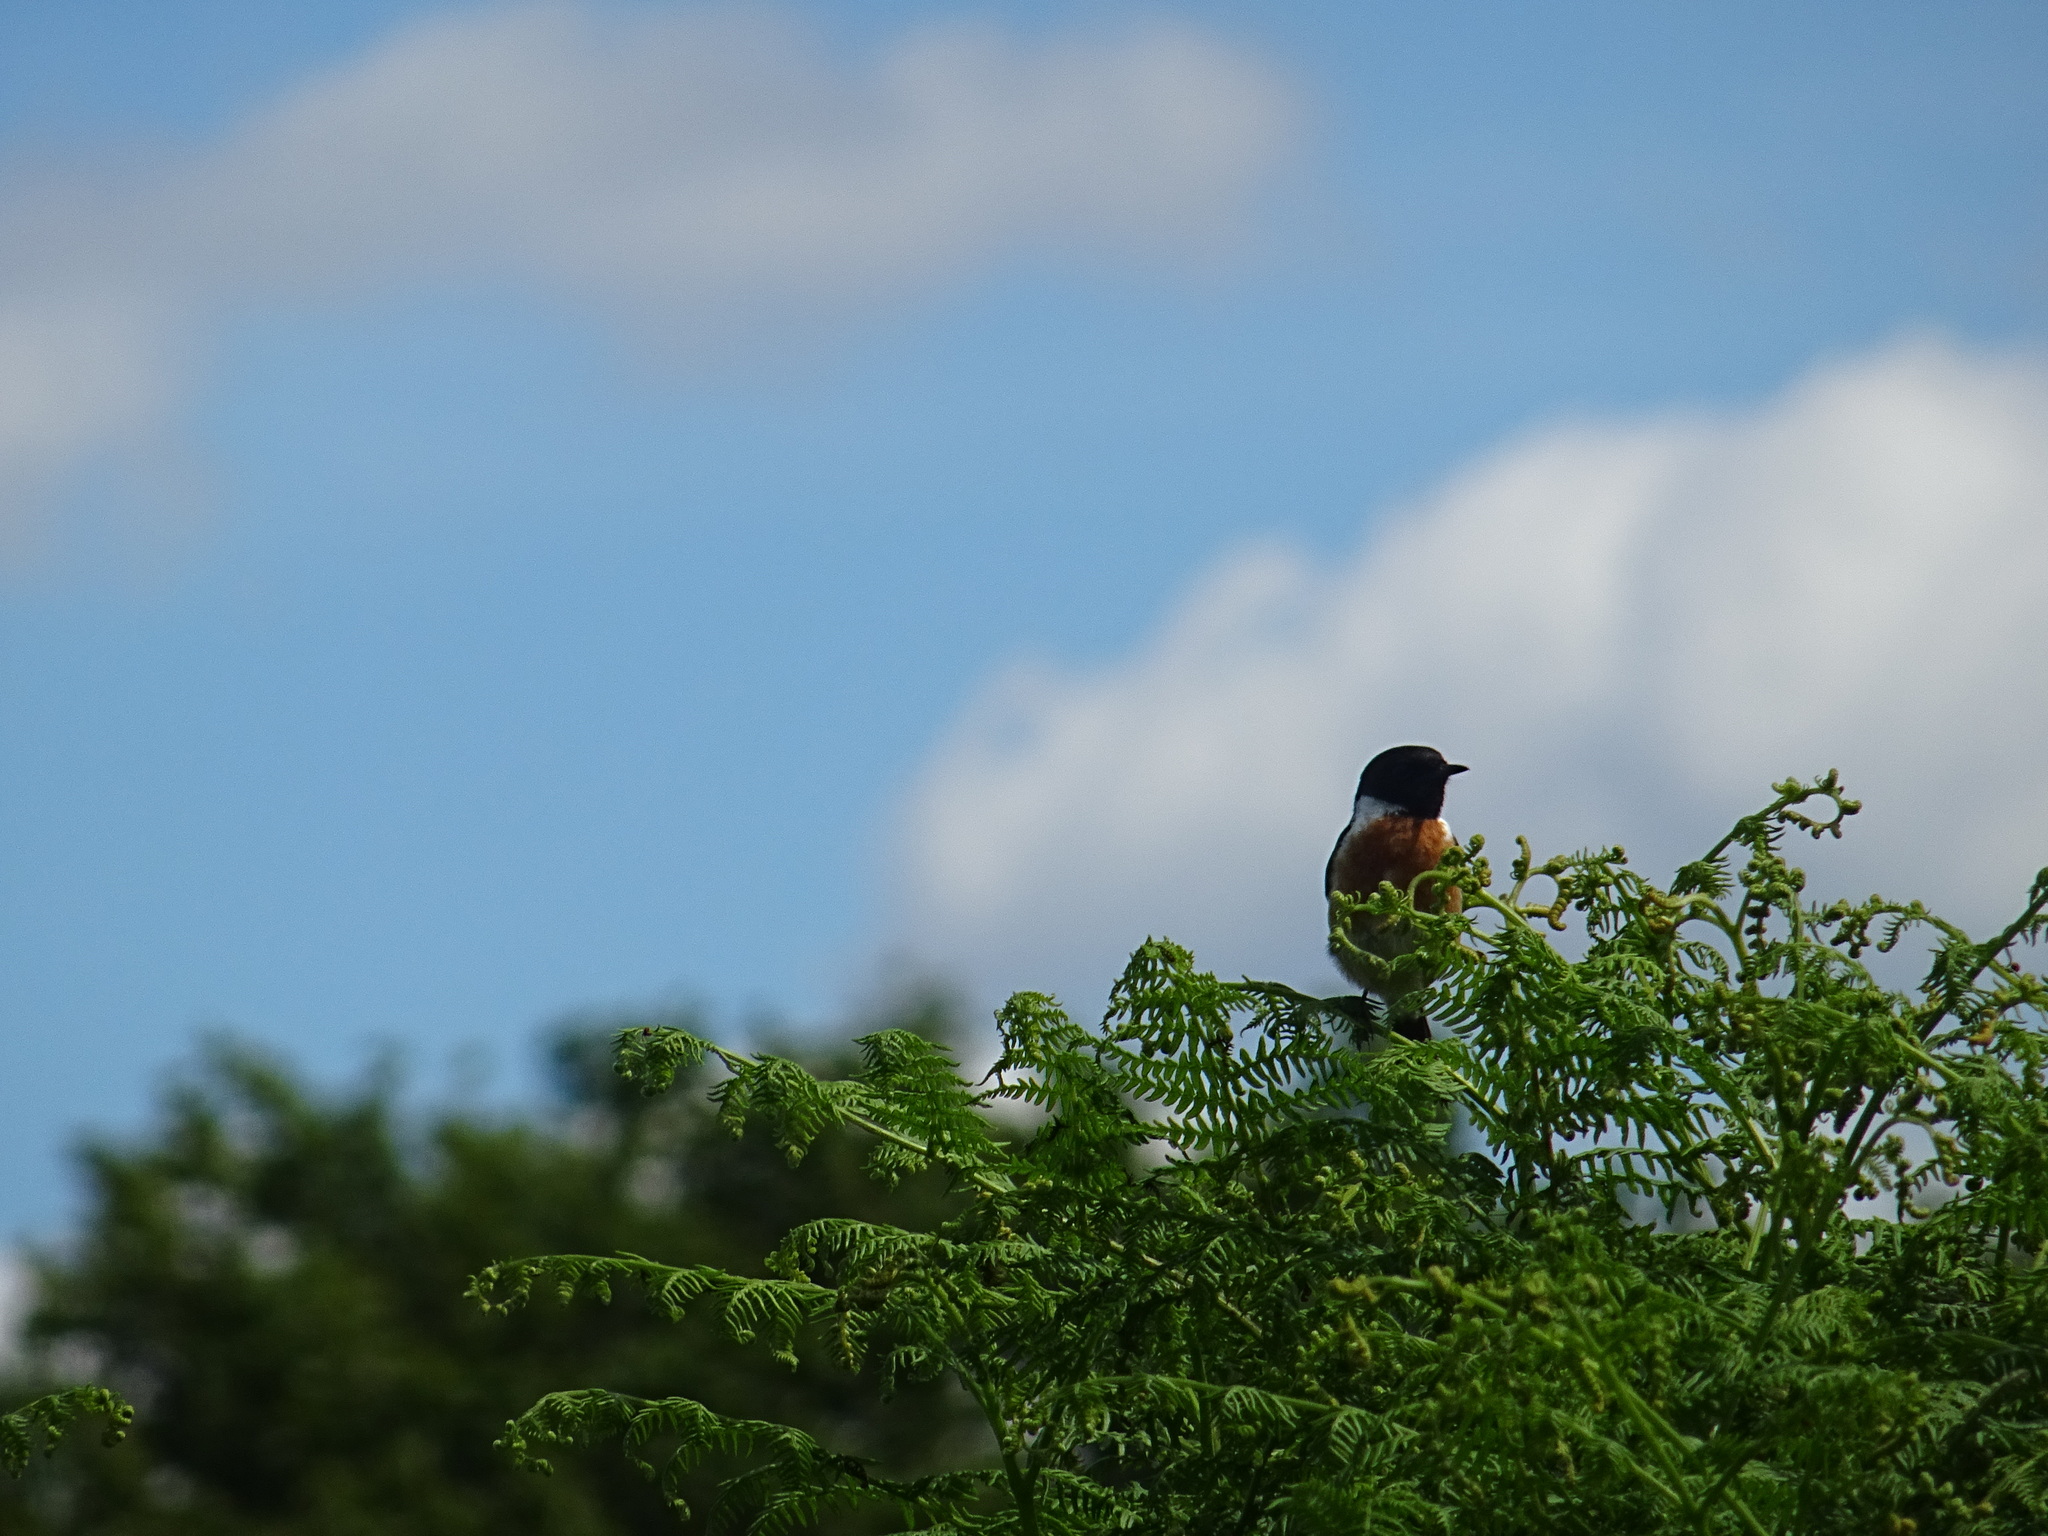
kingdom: Animalia
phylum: Chordata
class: Aves
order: Passeriformes
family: Muscicapidae
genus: Saxicola
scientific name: Saxicola rubicola
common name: European stonechat
